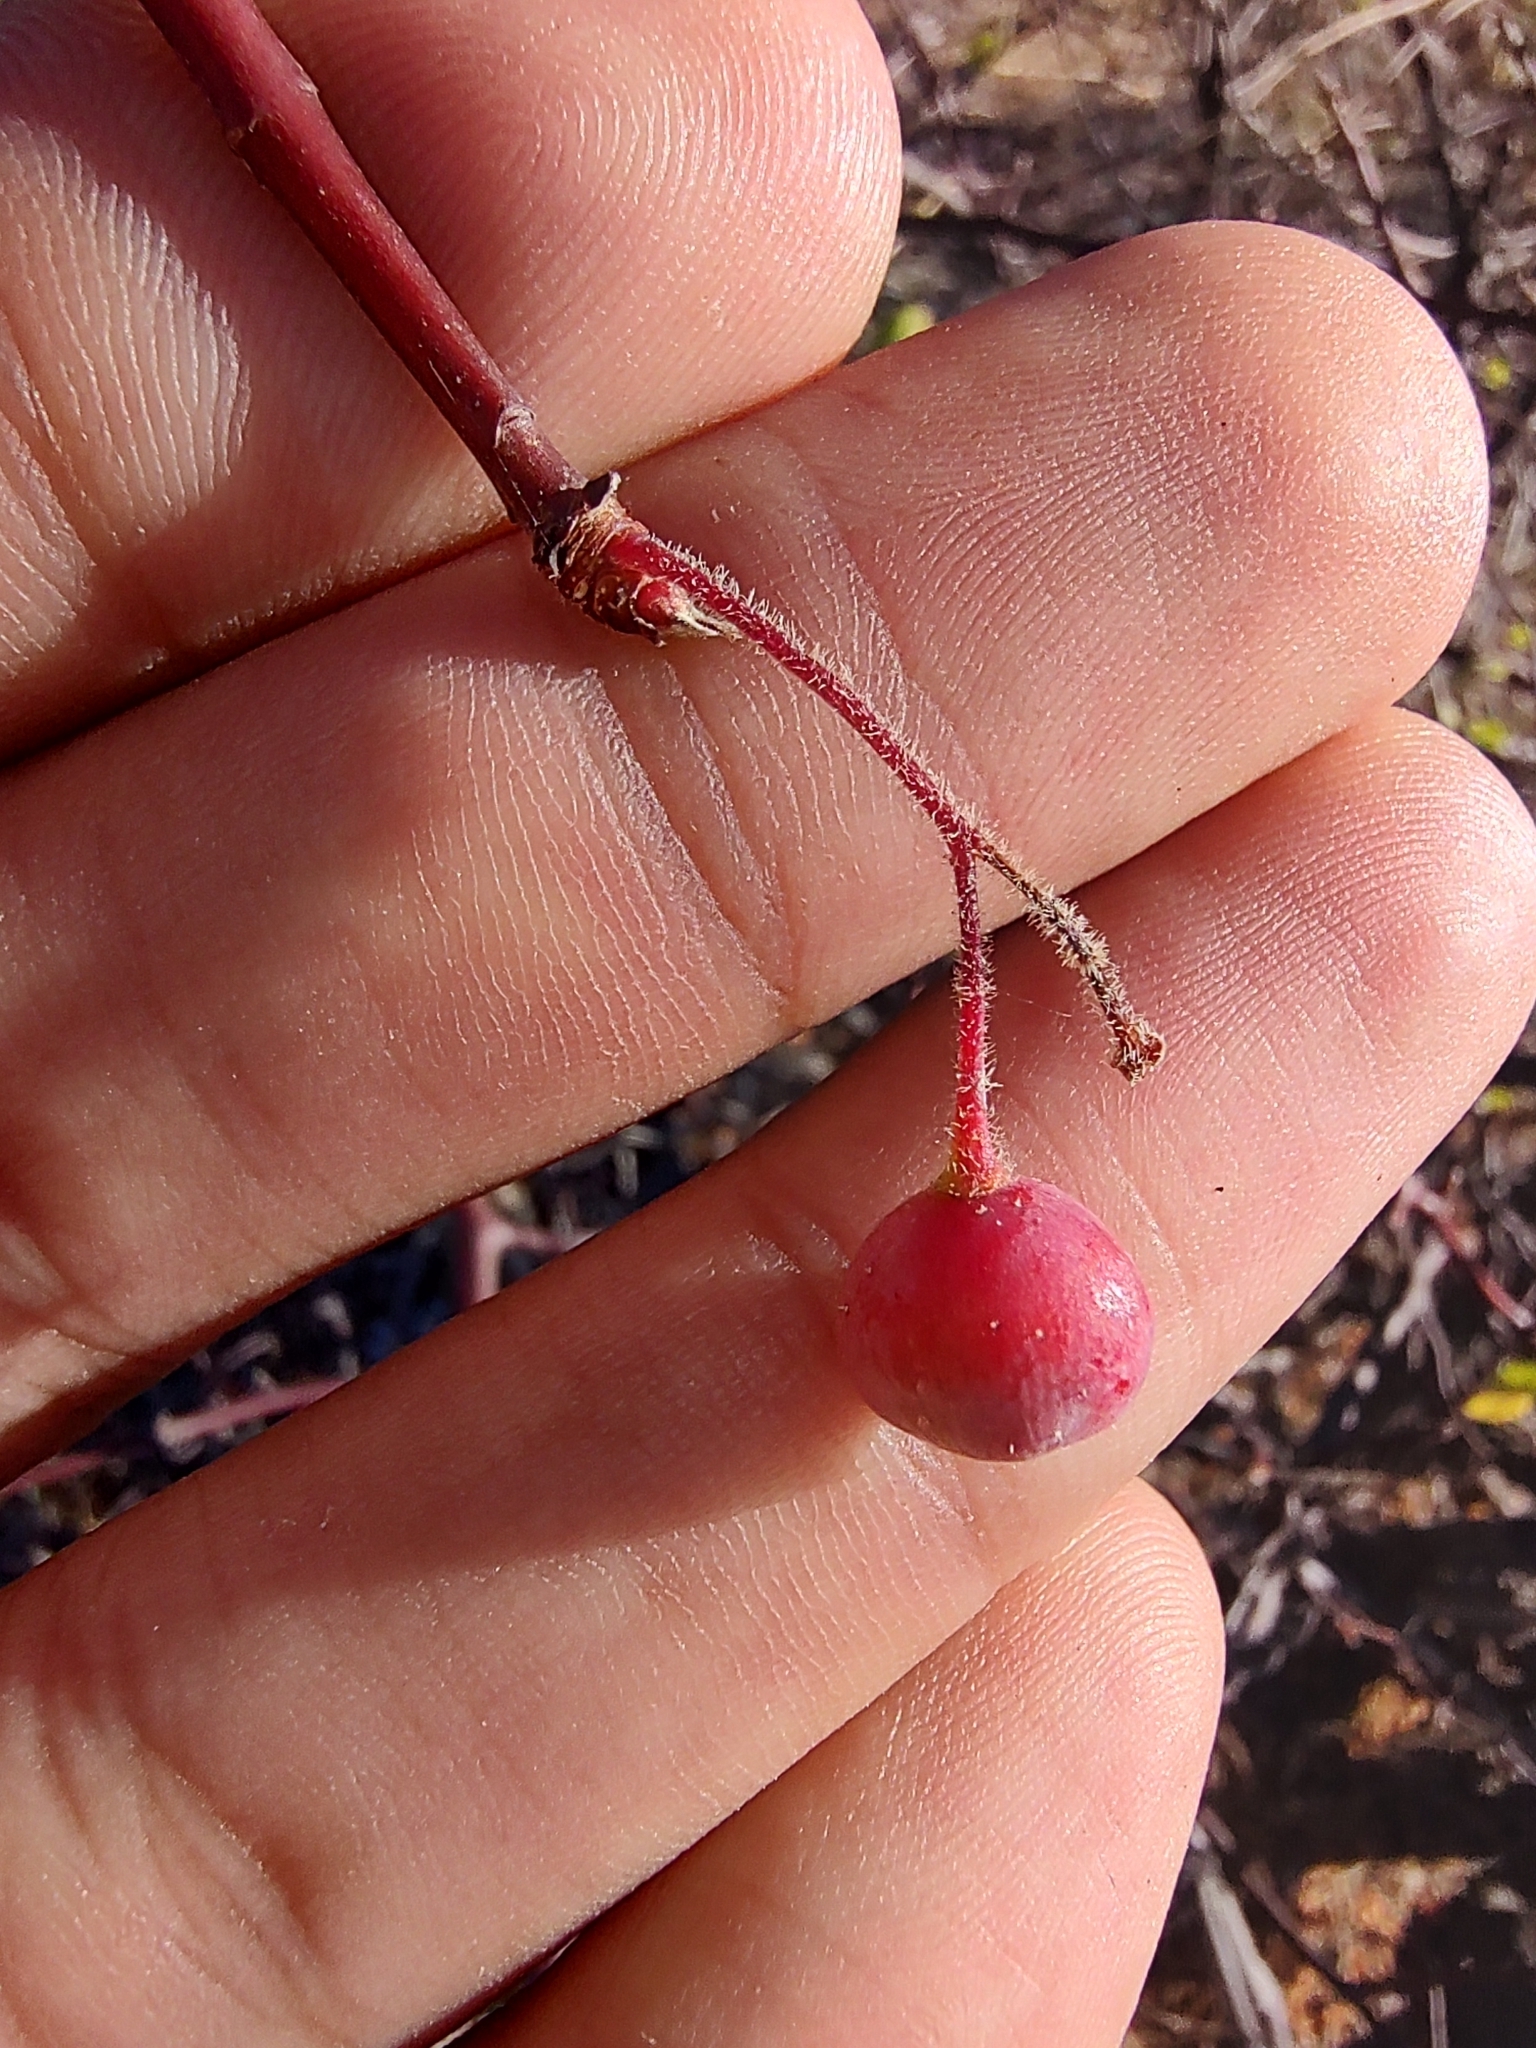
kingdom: Plantae
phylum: Tracheophyta
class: Magnoliopsida
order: Sapindales
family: Burseraceae
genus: Bursera
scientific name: Bursera epinnata
